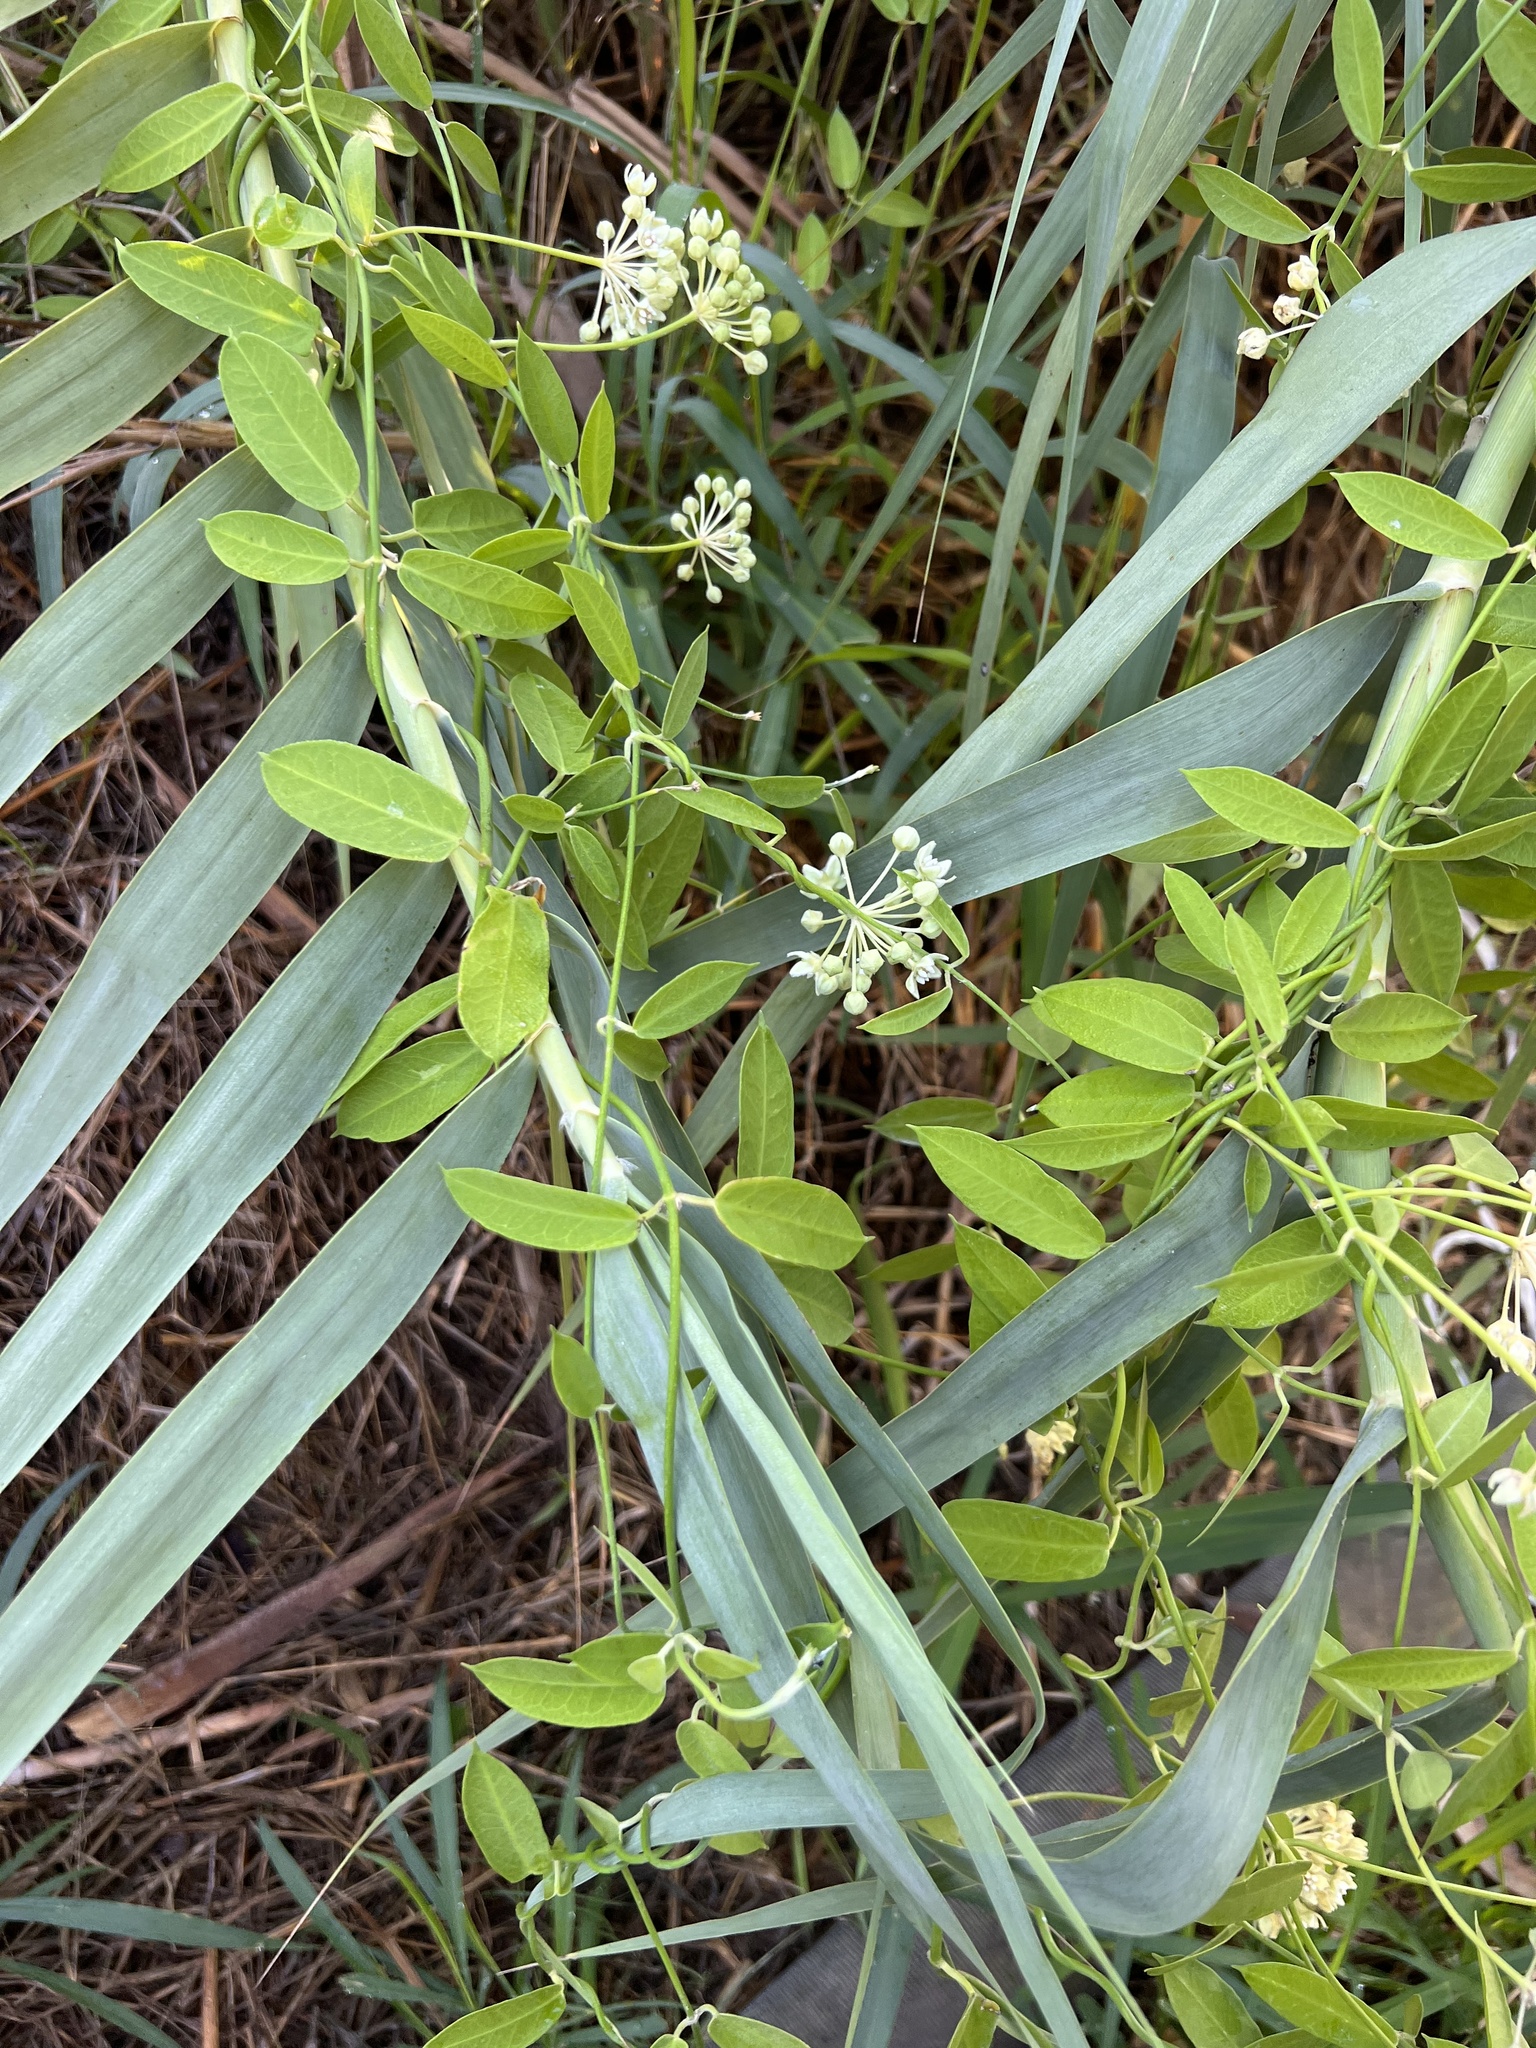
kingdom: Plantae
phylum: Tracheophyta
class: Magnoliopsida
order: Gentianales
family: Apocynaceae
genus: Funastrum
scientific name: Funastrum clausum
